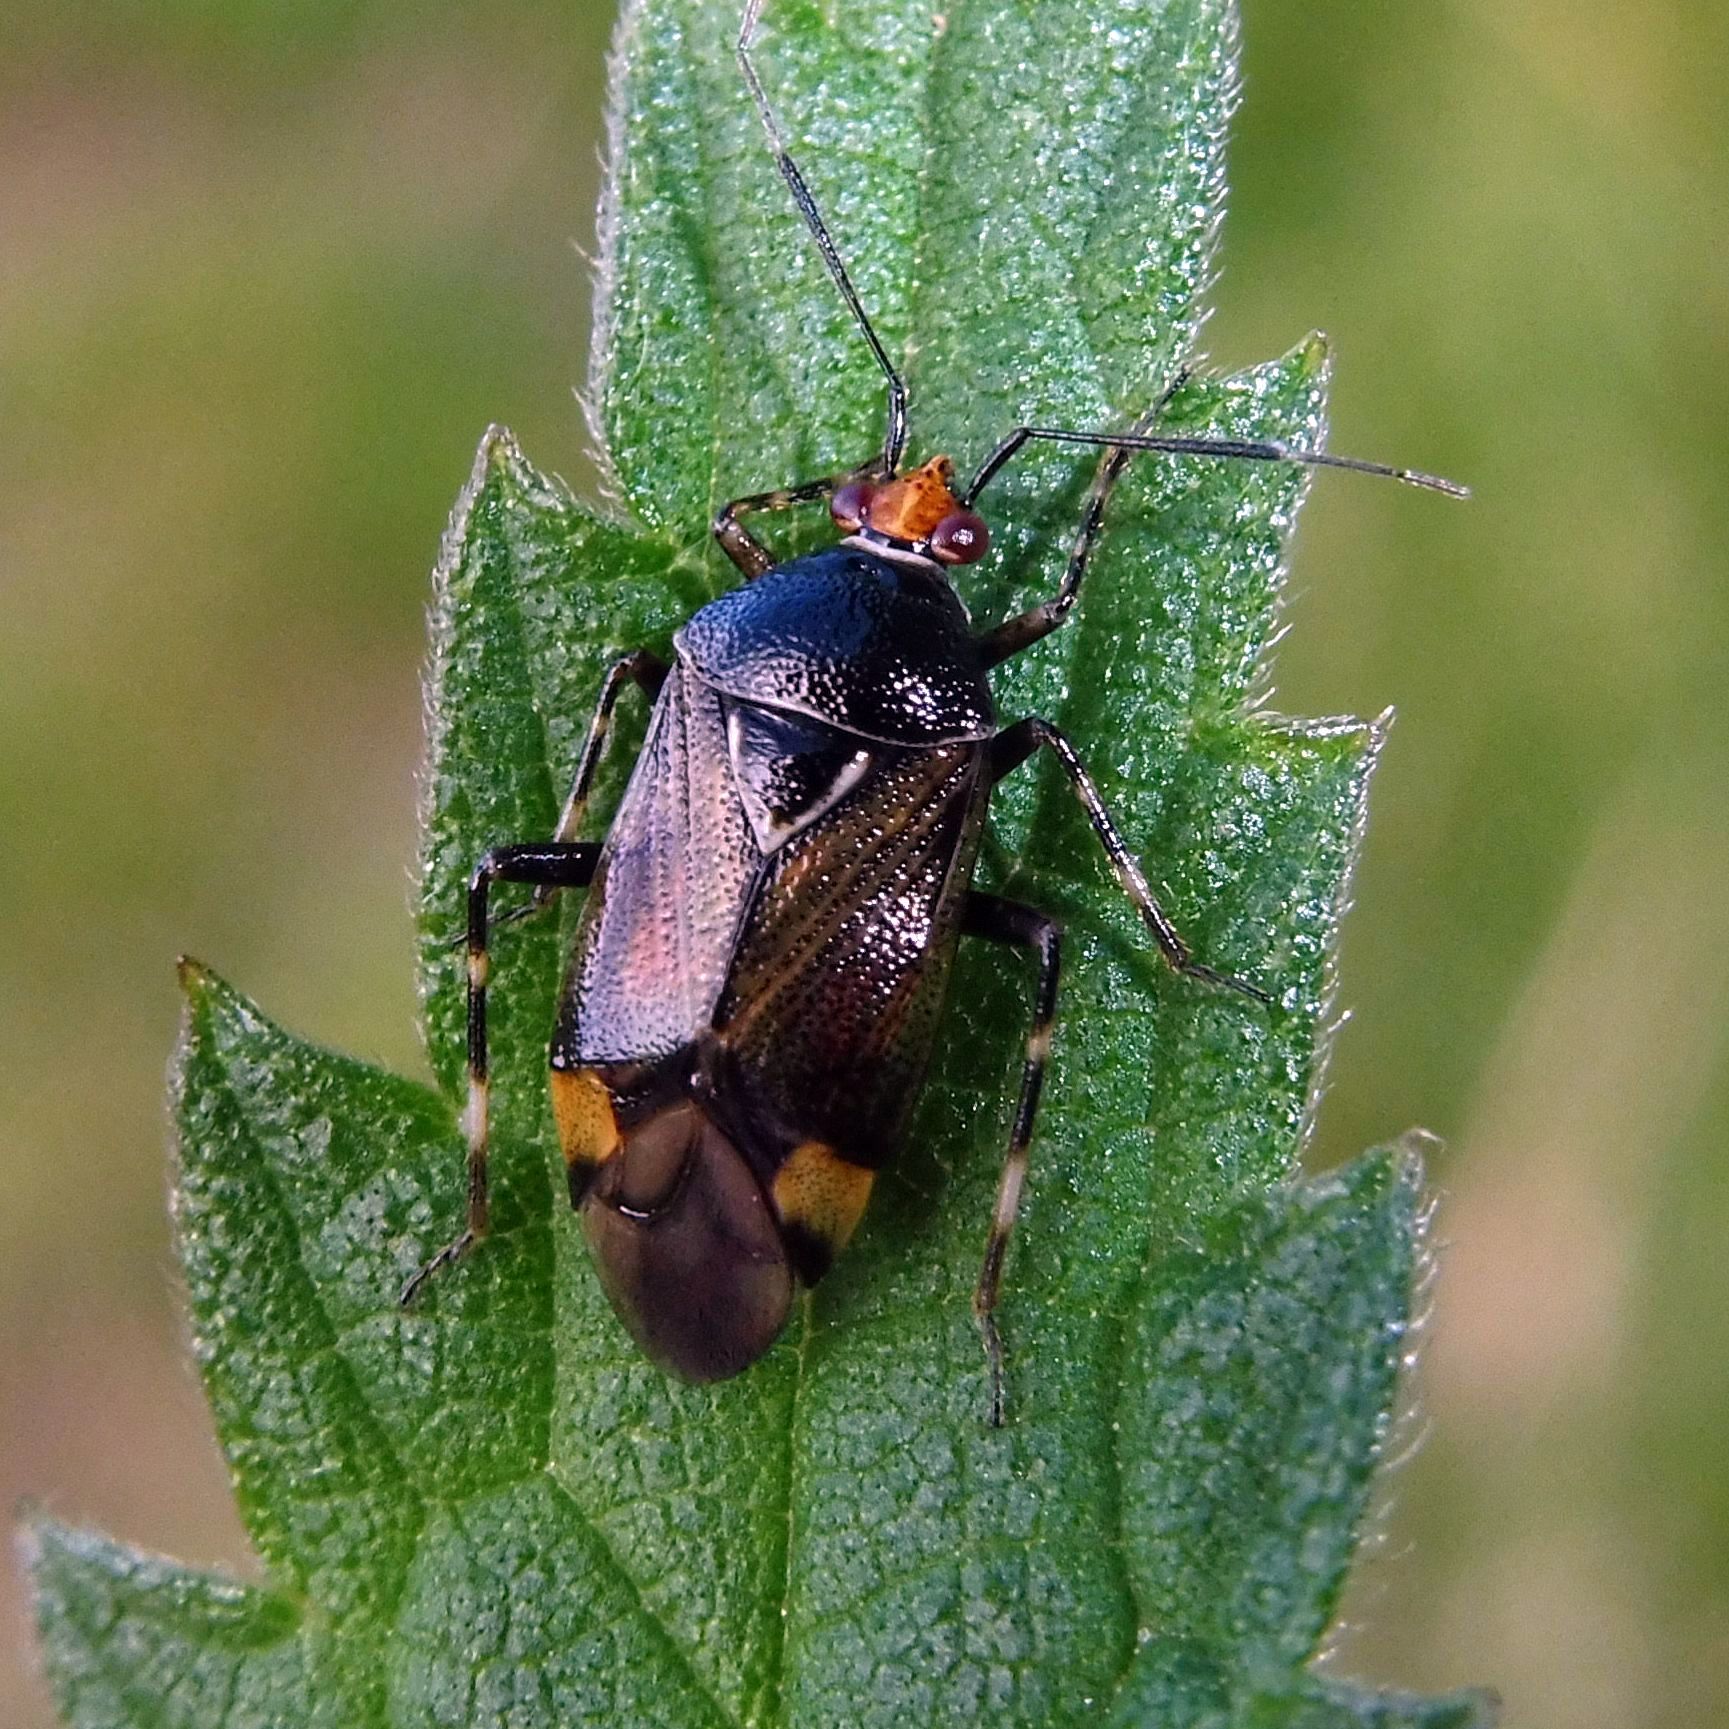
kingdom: Animalia
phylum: Arthropoda
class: Insecta
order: Hemiptera
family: Miridae
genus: Deraeocoris
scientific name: Deraeocoris flavilinea
